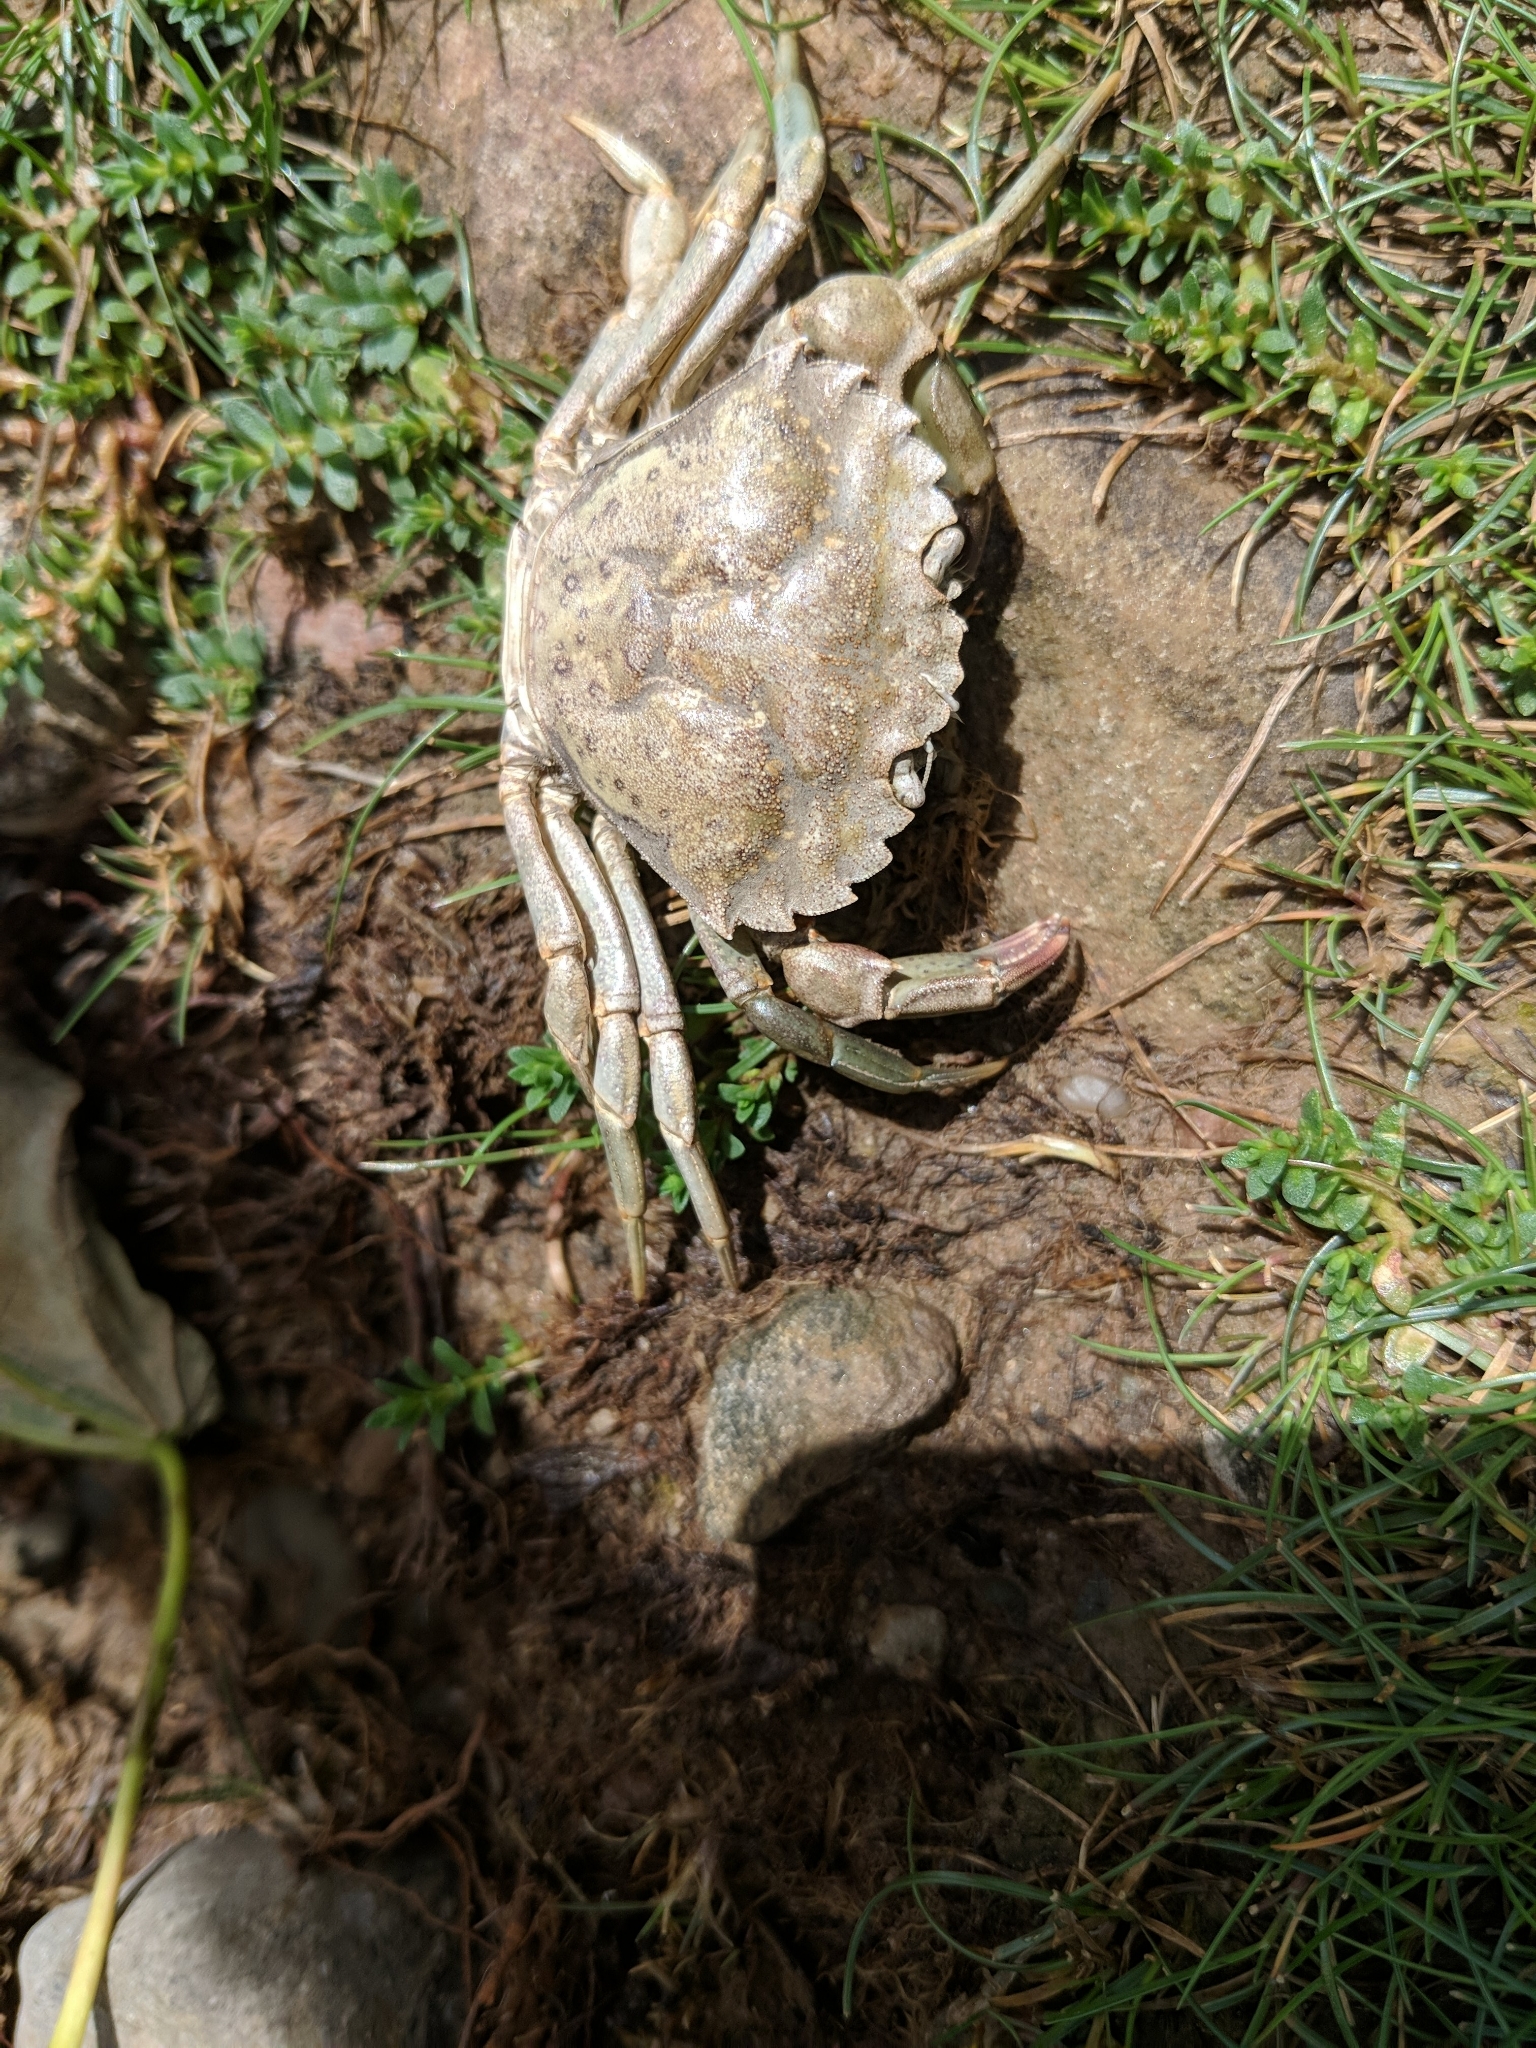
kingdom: Animalia
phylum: Arthropoda
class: Malacostraca
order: Decapoda
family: Carcinidae
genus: Carcinus
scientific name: Carcinus maenas
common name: European green crab
